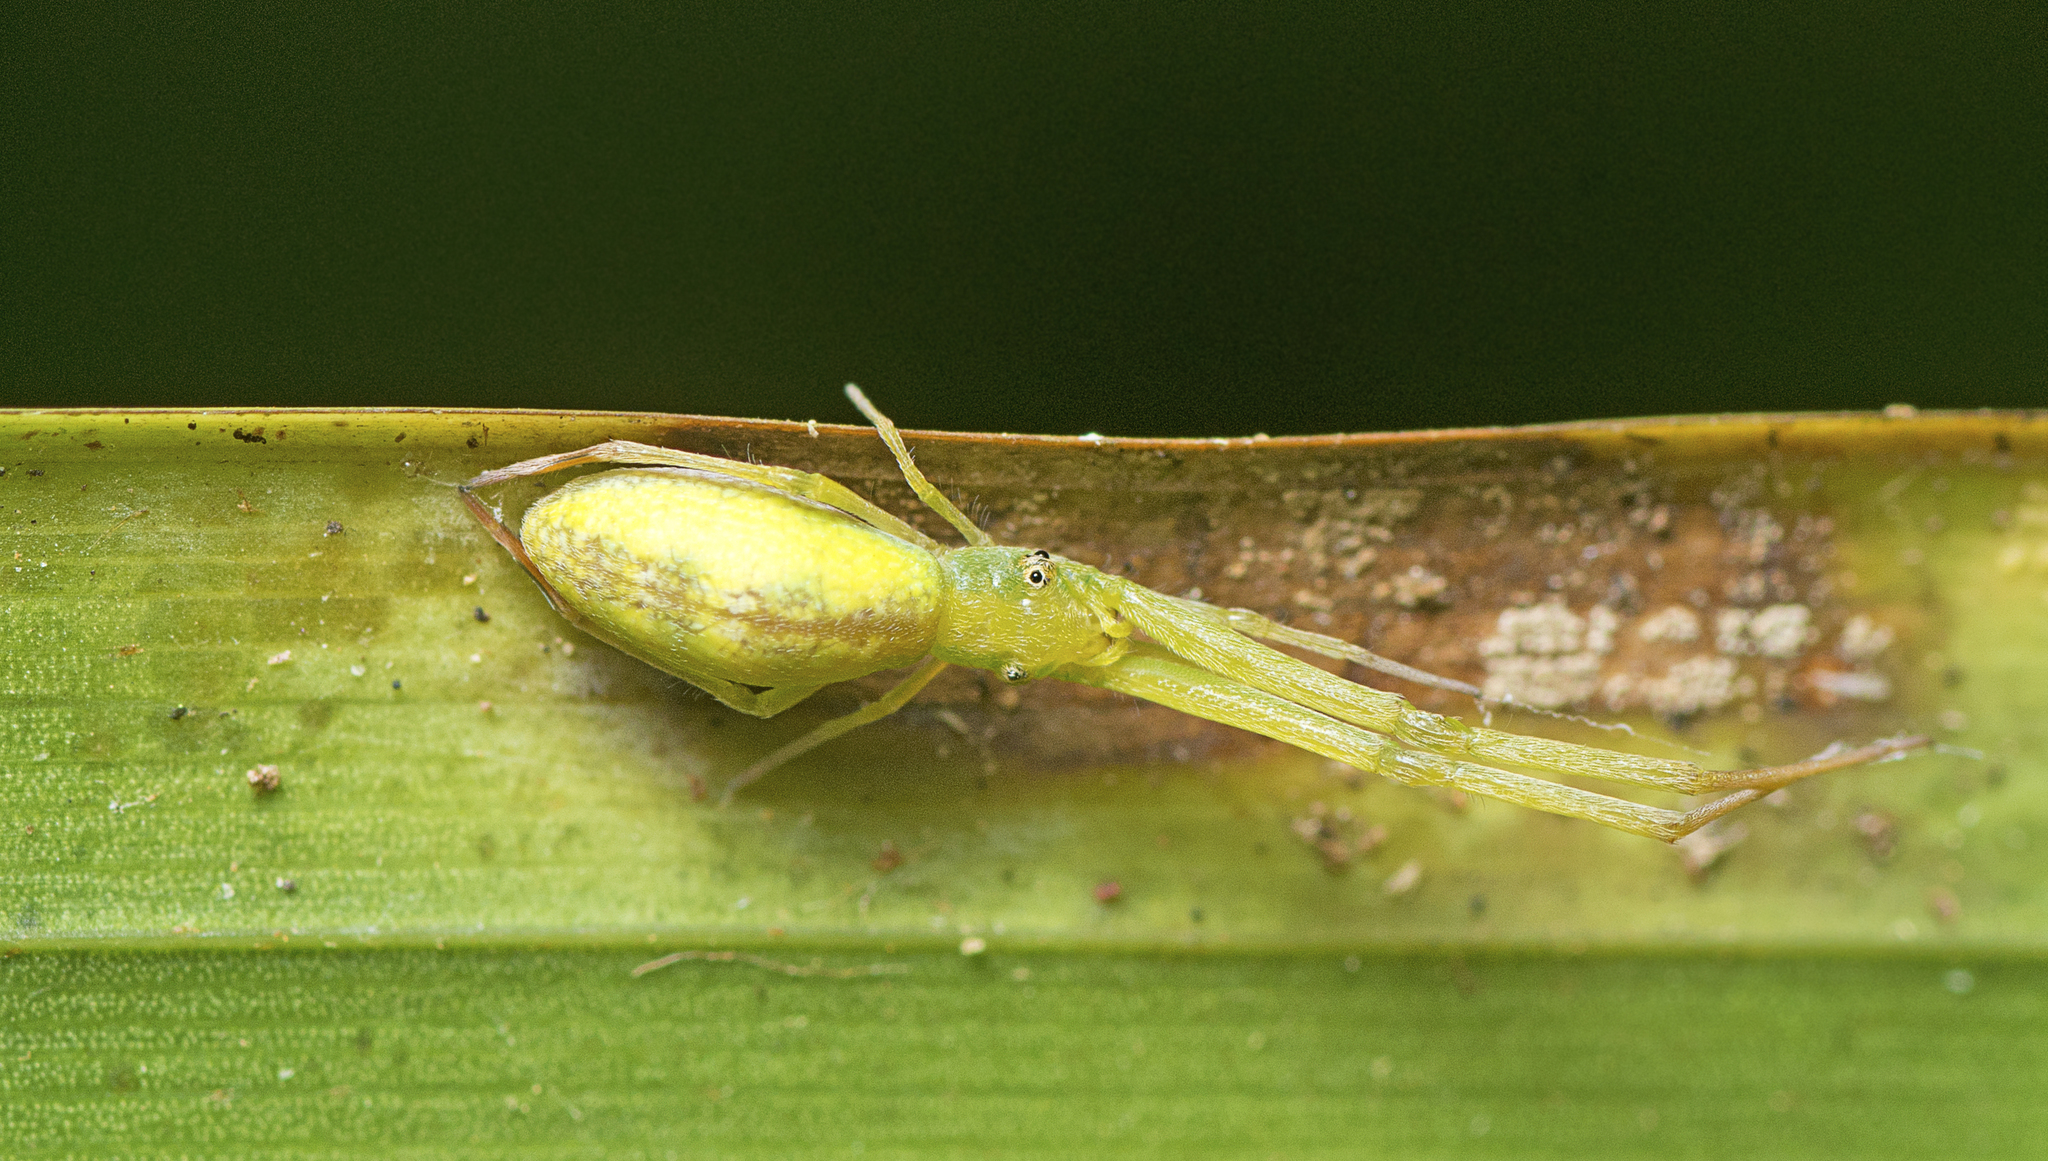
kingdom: Animalia
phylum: Arthropoda
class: Arachnida
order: Araneae
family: Uloboridae
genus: Miagrammopes
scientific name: Miagrammopes flavus
